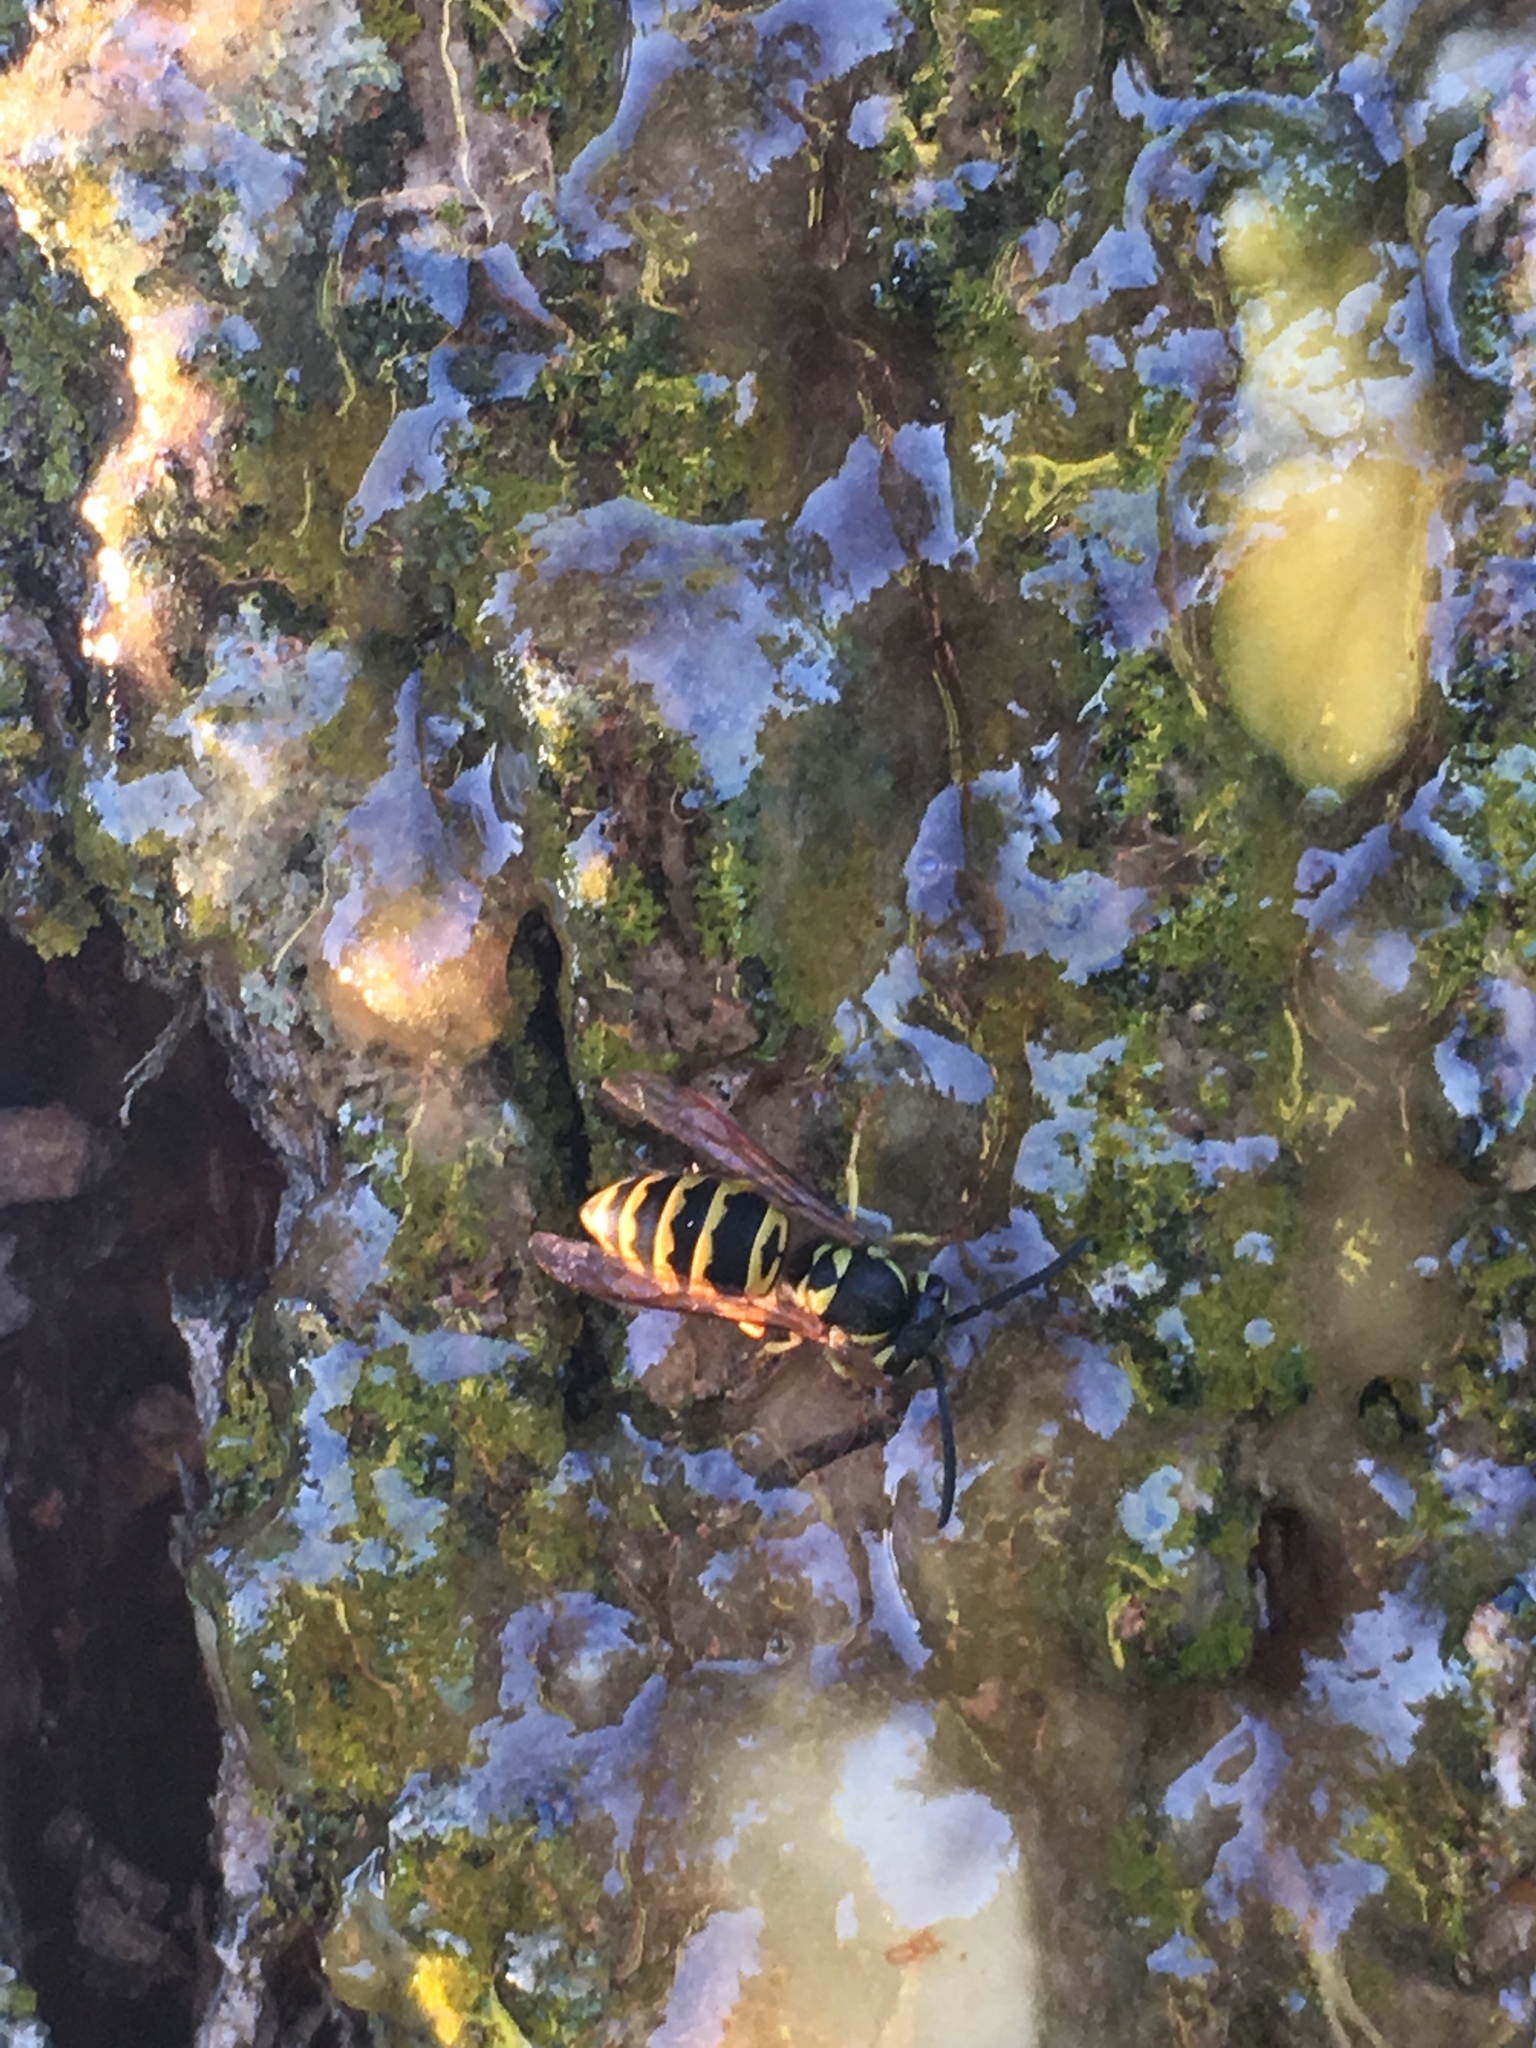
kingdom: Animalia
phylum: Arthropoda
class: Insecta
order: Hymenoptera
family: Vespidae
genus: Vespula
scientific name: Vespula maculifrons
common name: Eastern yellowjacket
